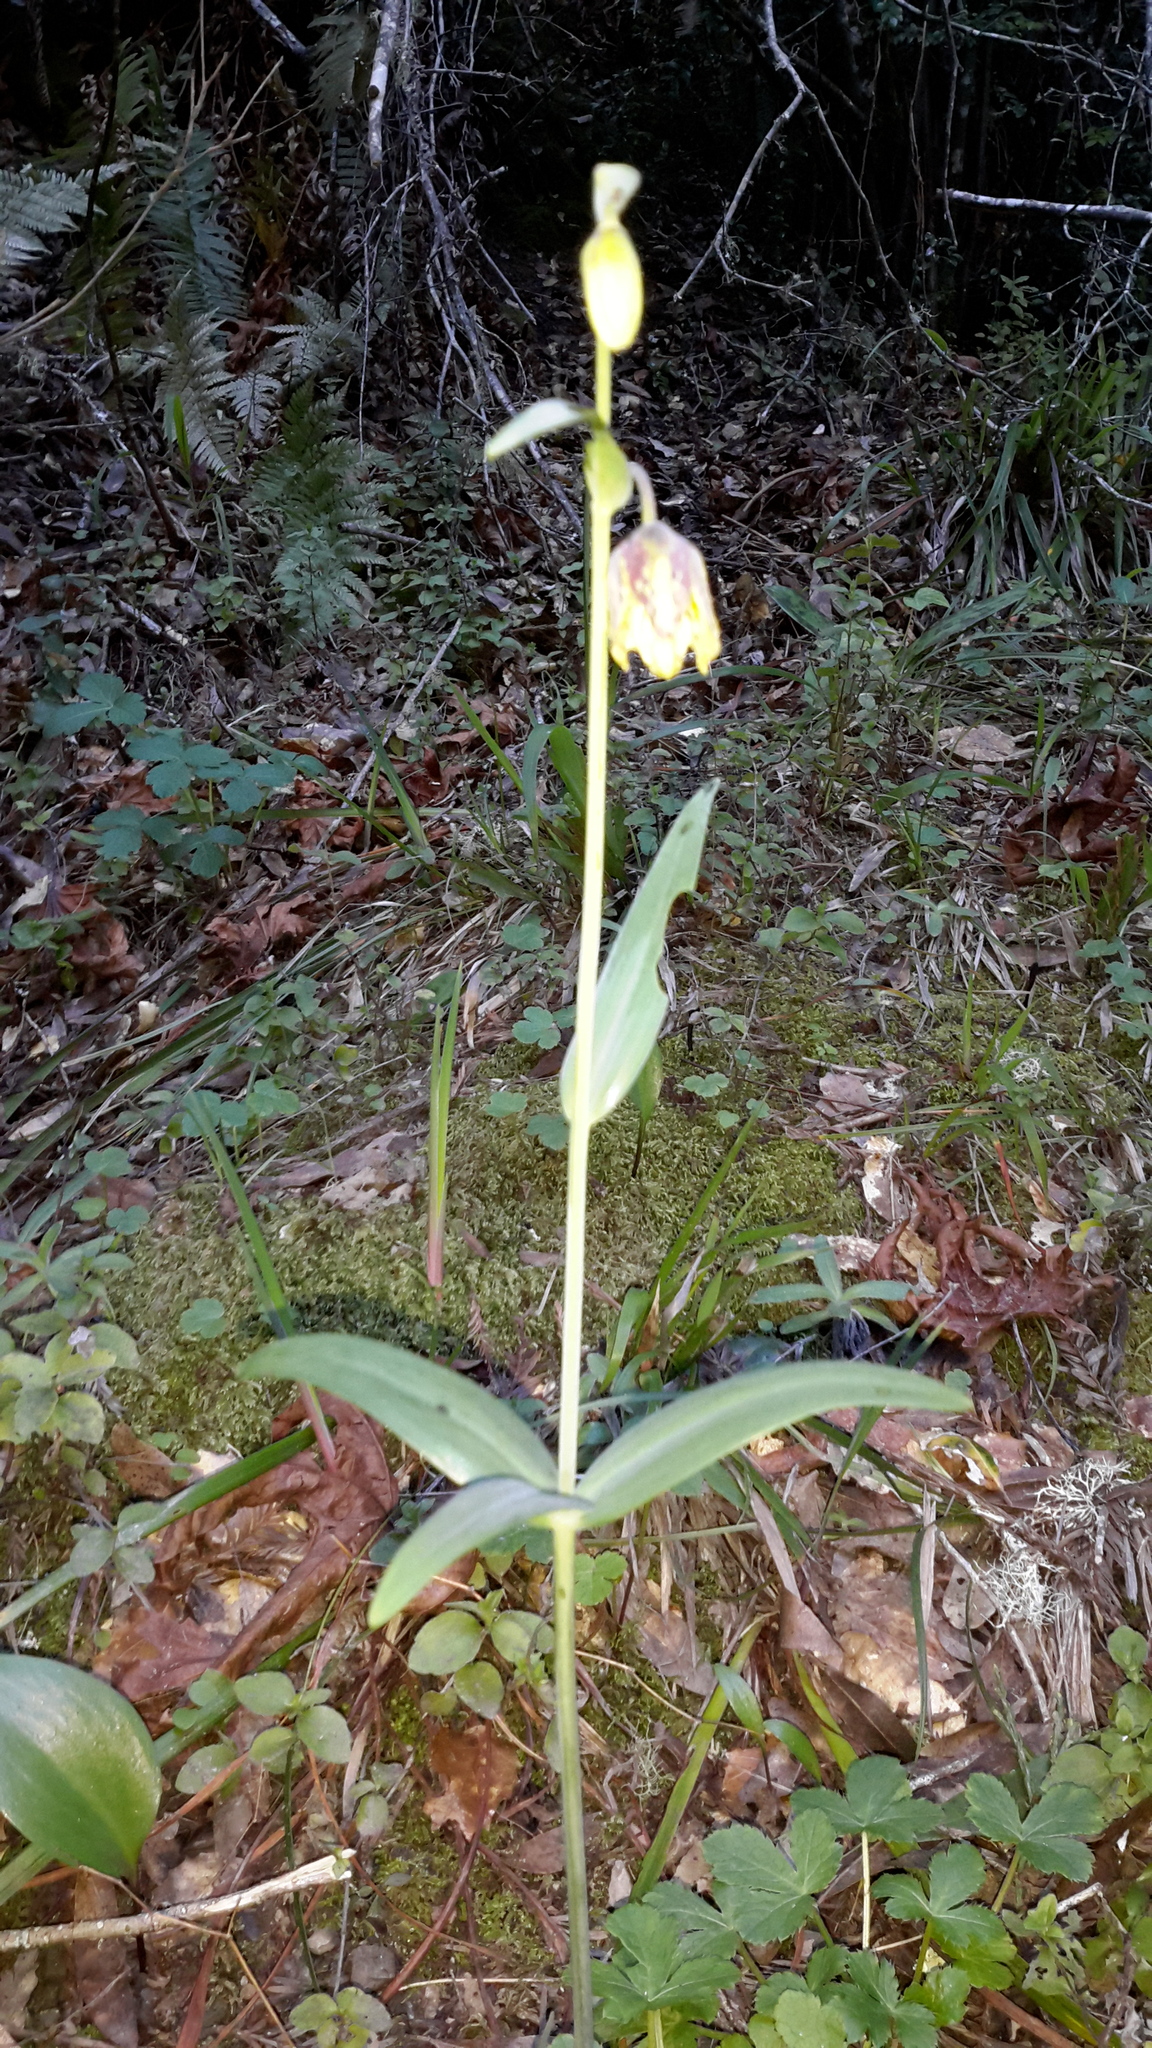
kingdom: Plantae
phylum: Tracheophyta
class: Liliopsida
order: Liliales
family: Liliaceae
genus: Fritillaria
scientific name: Fritillaria affinis
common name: Ojai fritillary
